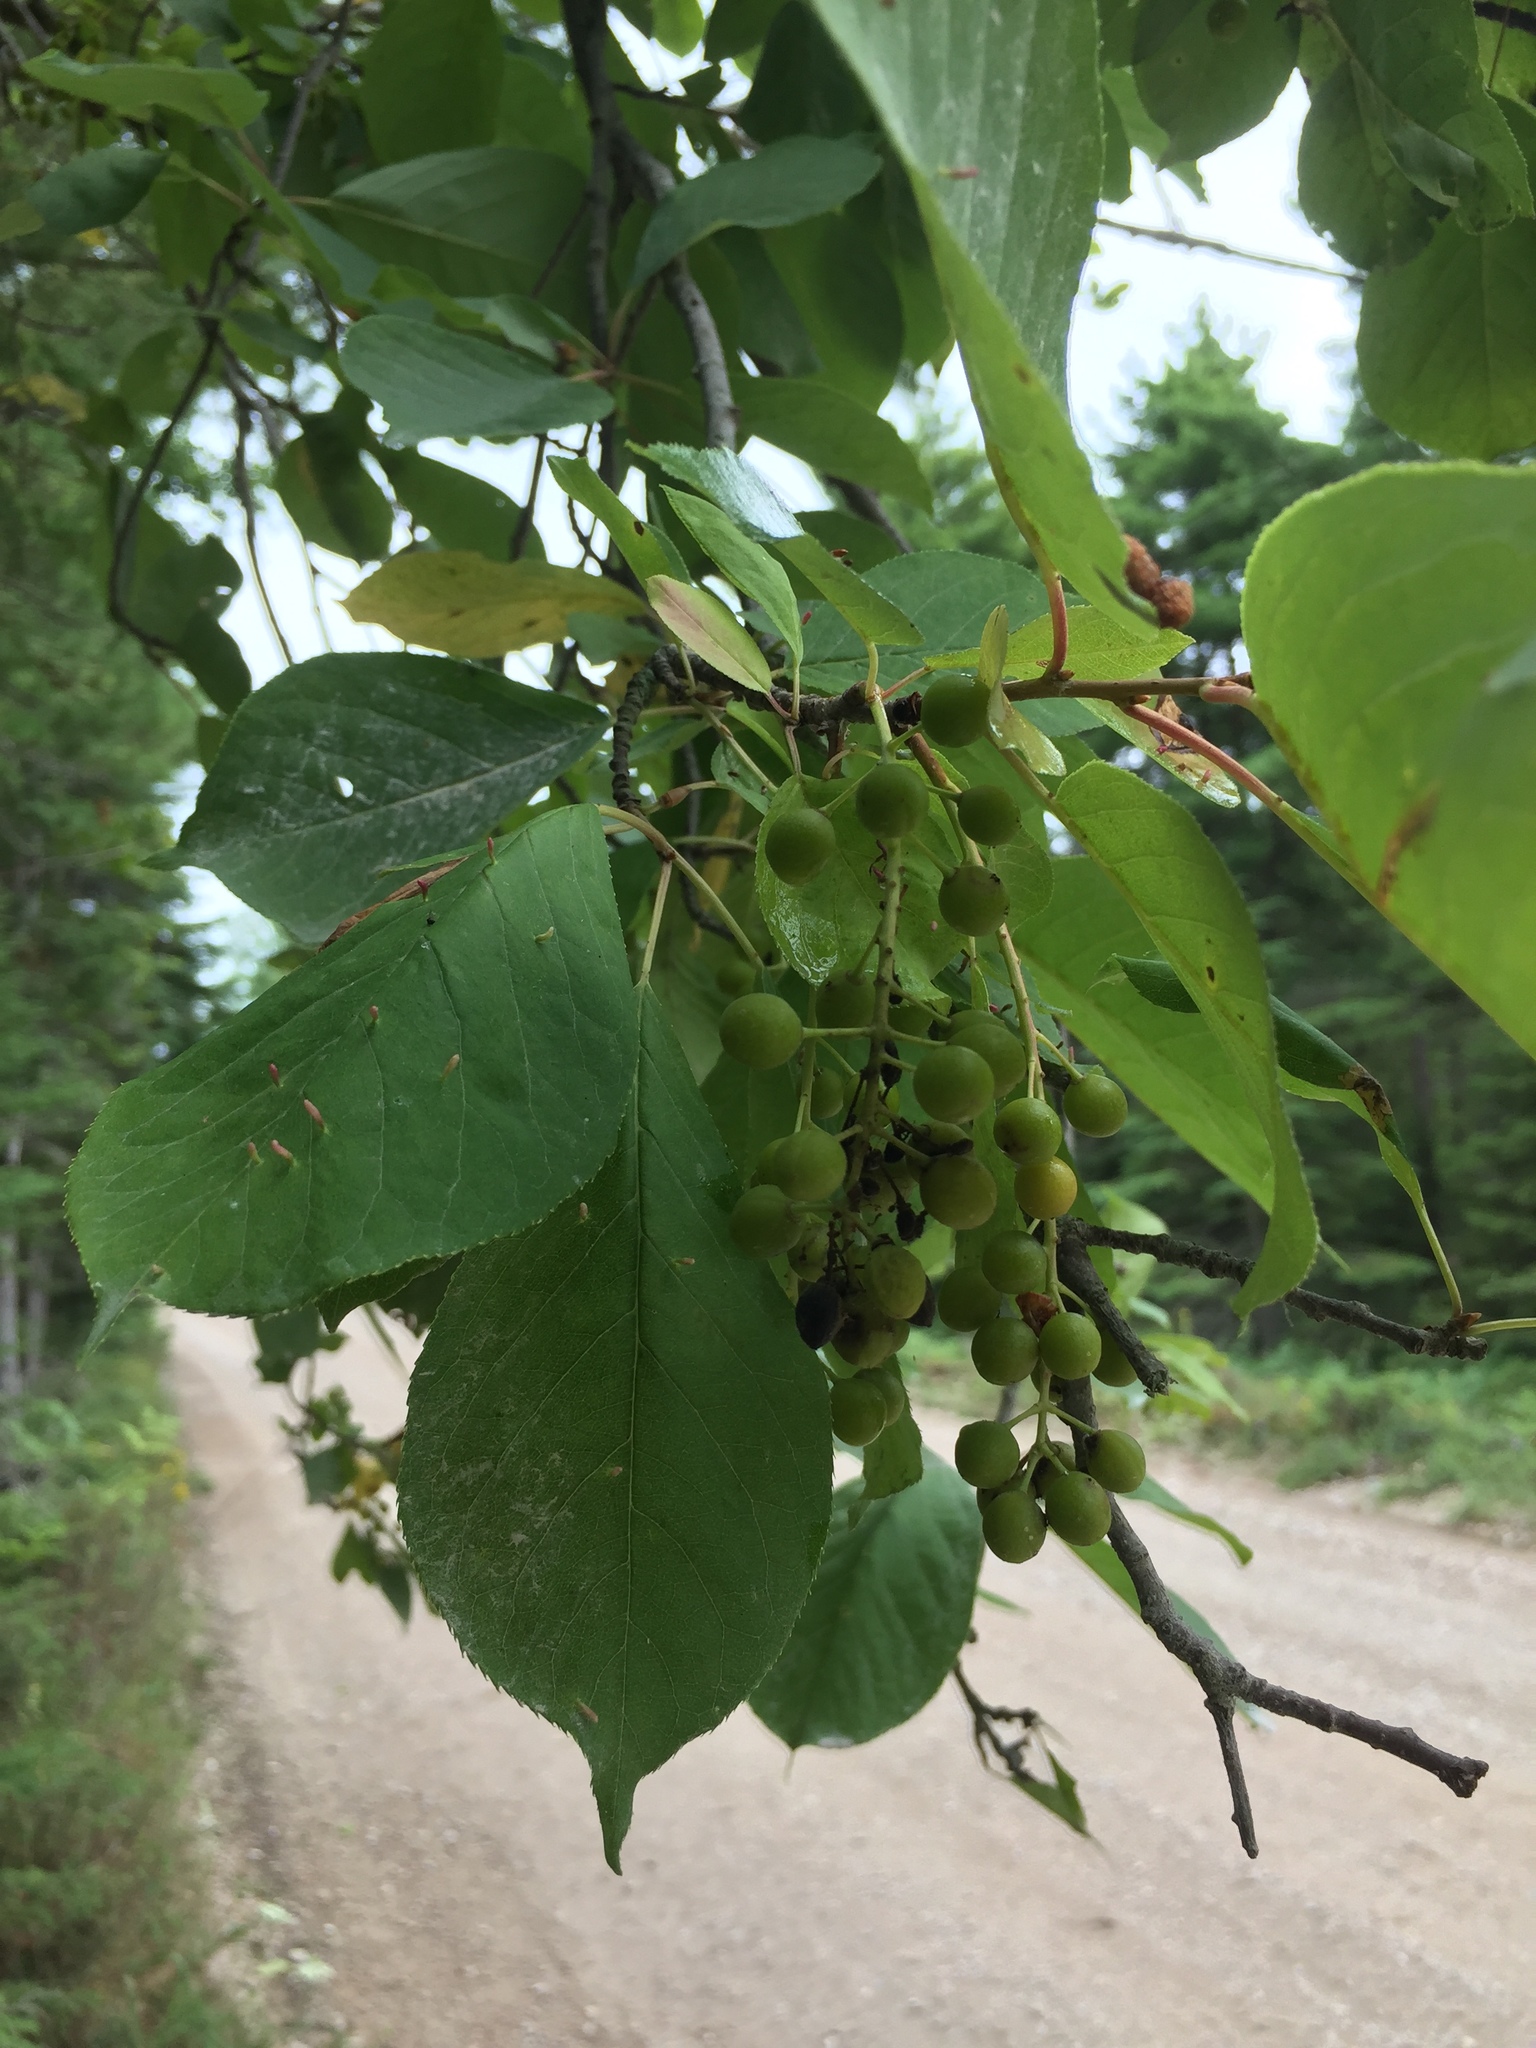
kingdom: Plantae
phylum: Tracheophyta
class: Magnoliopsida
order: Rosales
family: Rosaceae
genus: Prunus
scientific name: Prunus virginiana
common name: Chokecherry
